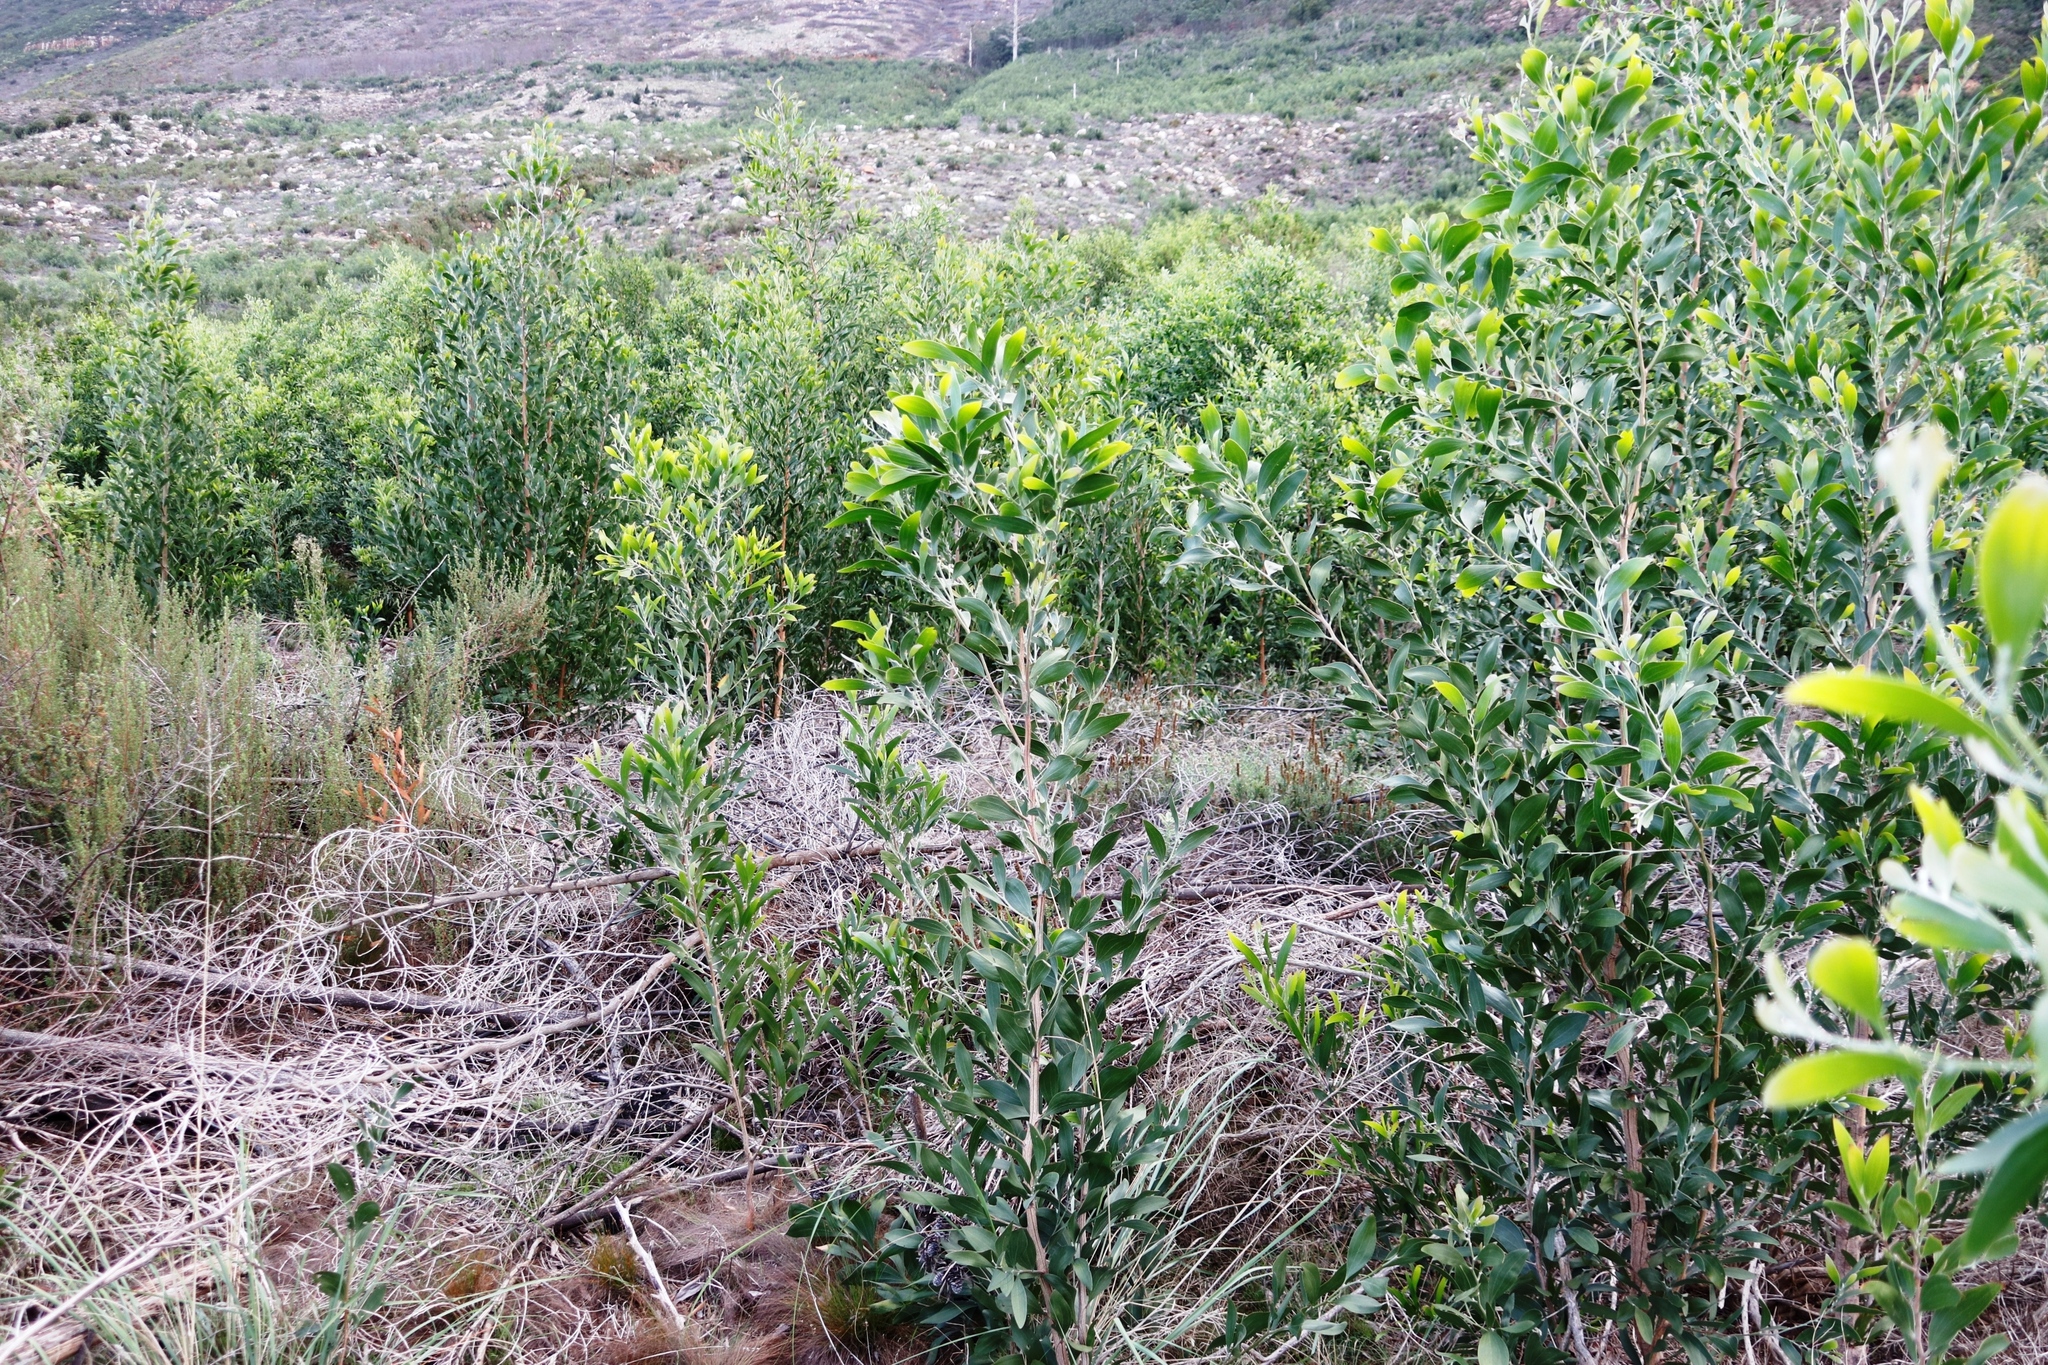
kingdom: Plantae
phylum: Tracheophyta
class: Magnoliopsida
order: Fabales
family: Fabaceae
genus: Acacia
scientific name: Acacia melanoxylon
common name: Blackwood
